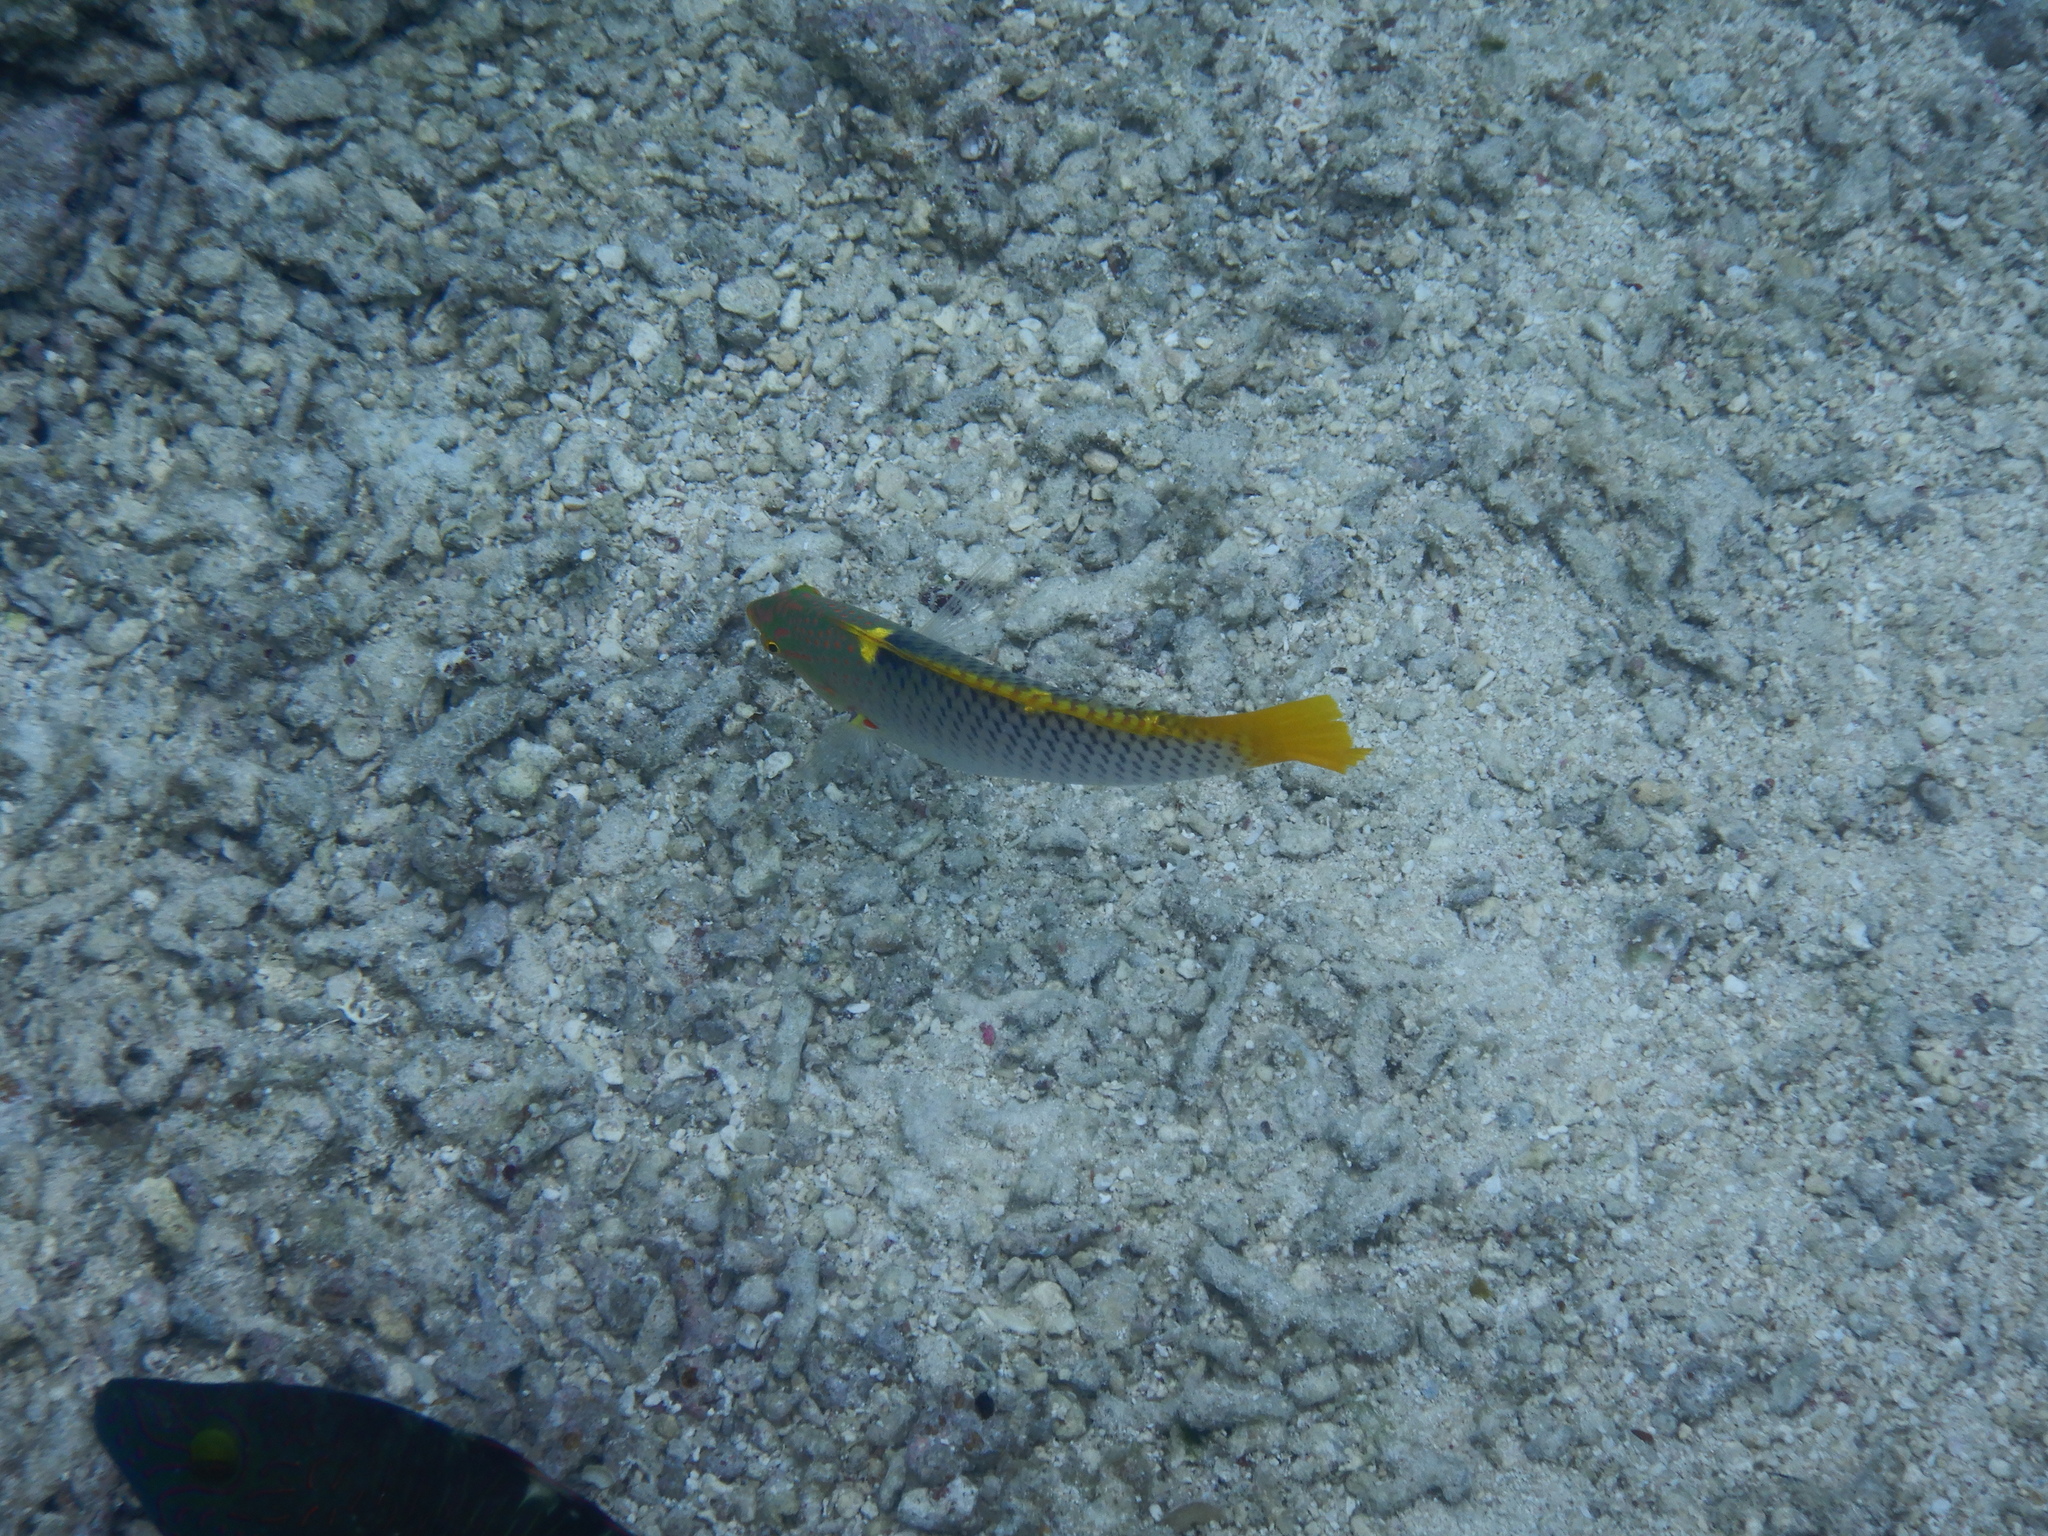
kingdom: Animalia
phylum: Chordata
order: Perciformes
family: Labridae
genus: Halichoeres
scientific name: Halichoeres hortulanus
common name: Checkerboard wrasse
